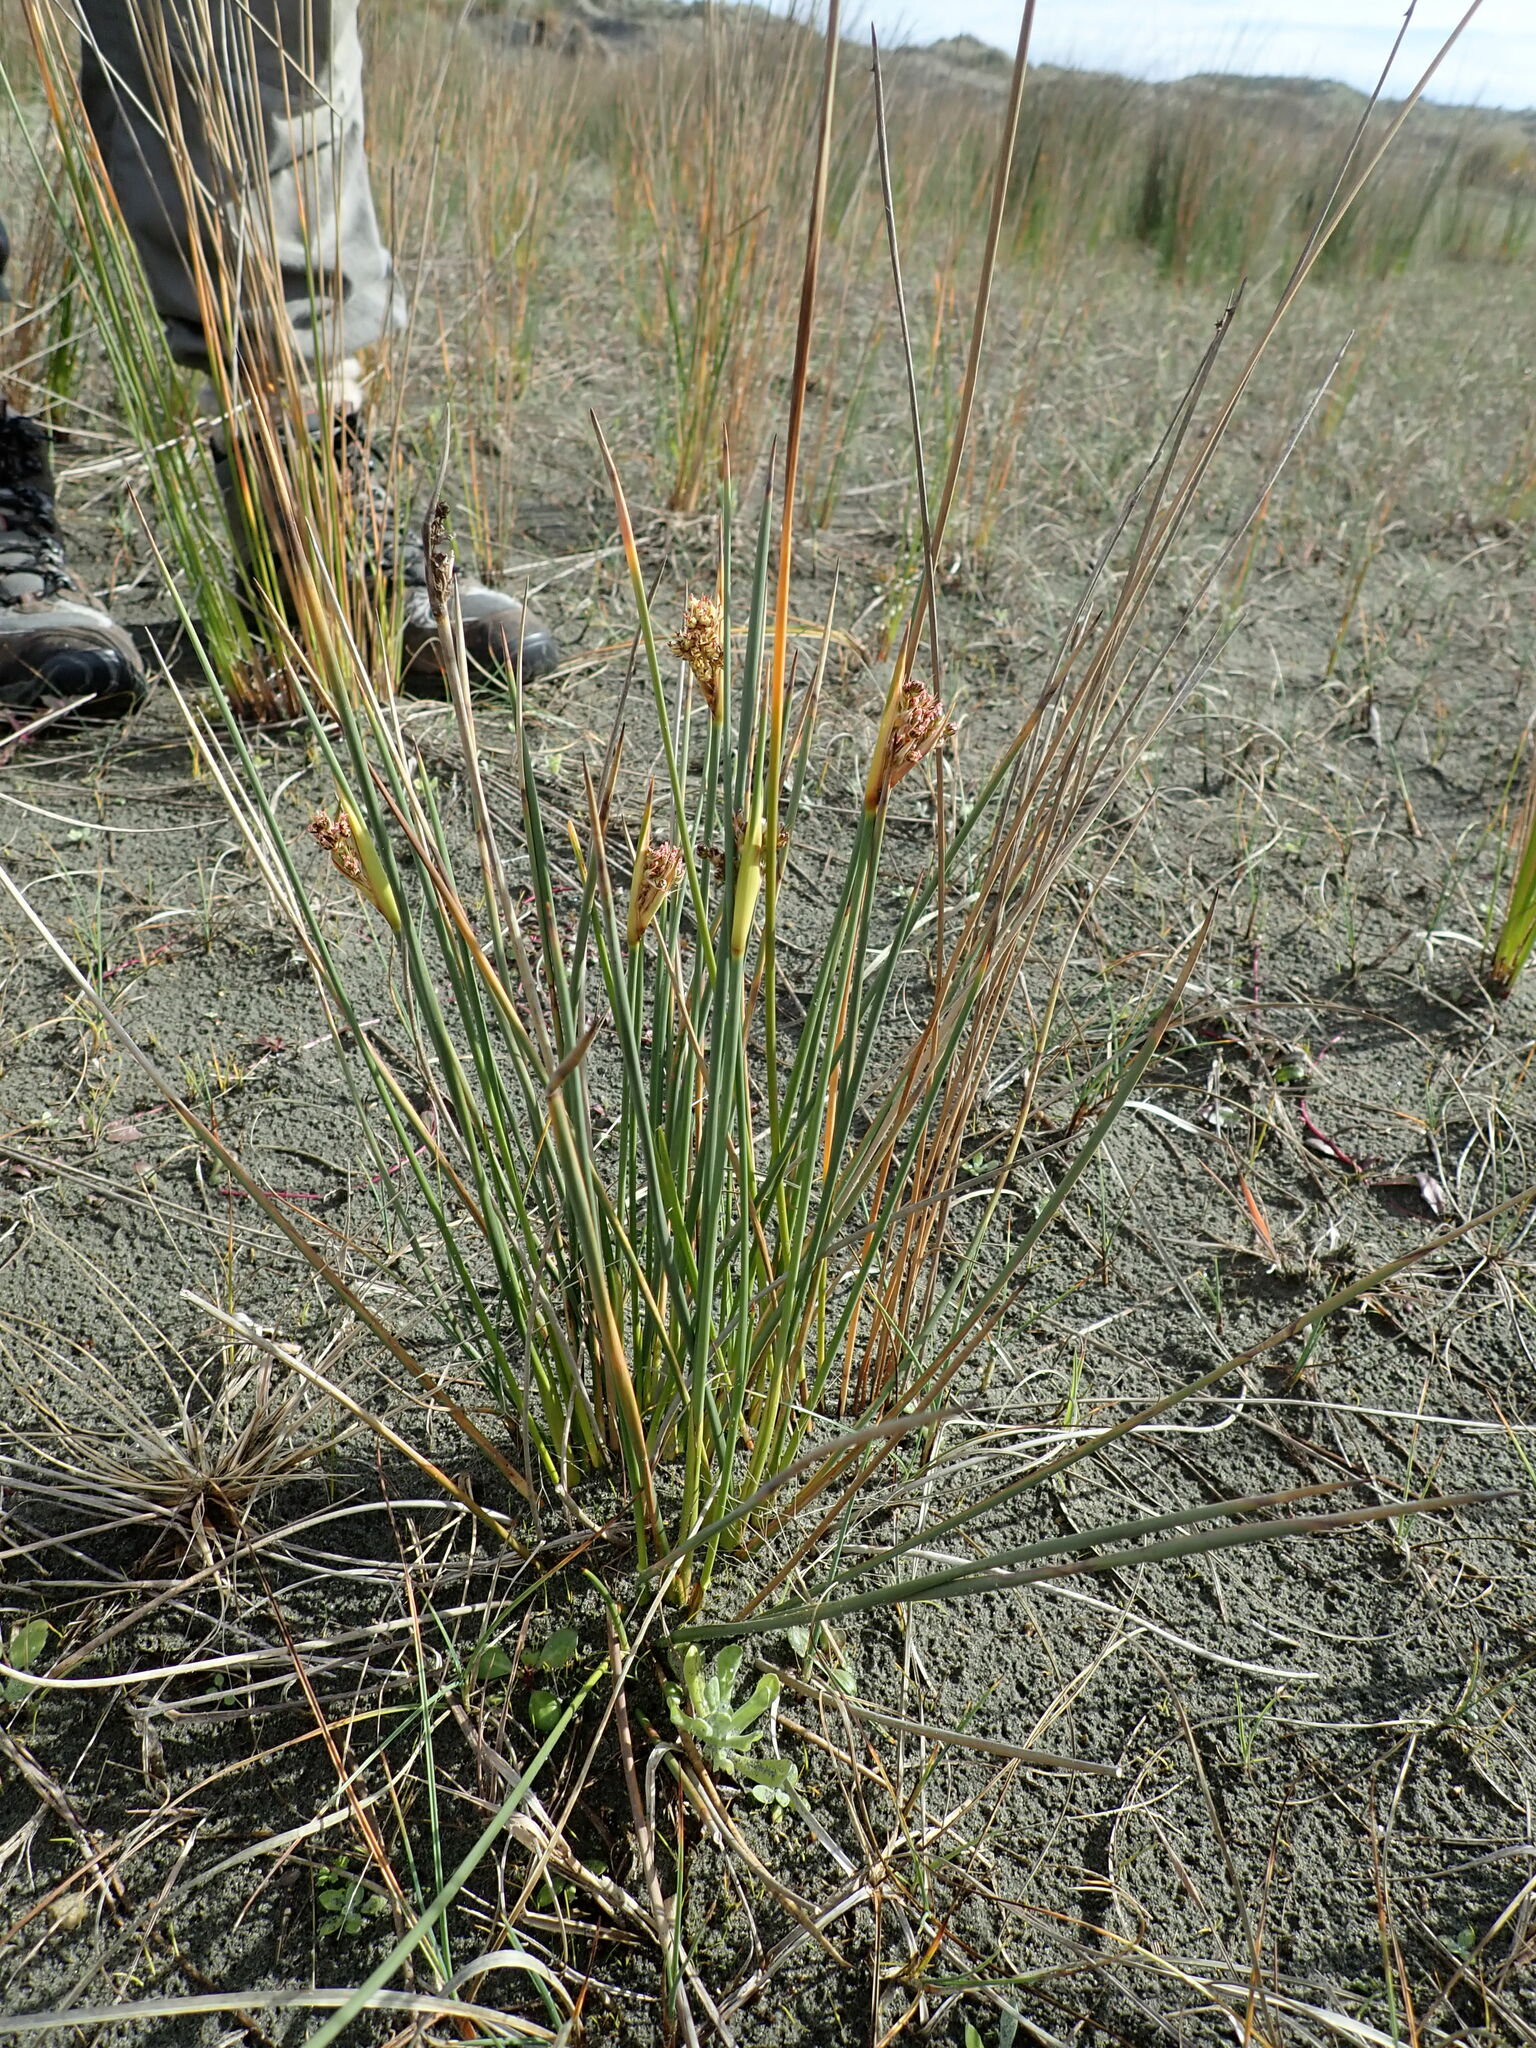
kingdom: Plantae
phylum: Tracheophyta
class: Liliopsida
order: Poales
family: Juncaceae
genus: Juncus
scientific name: Juncus acutus
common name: Sharp rush
